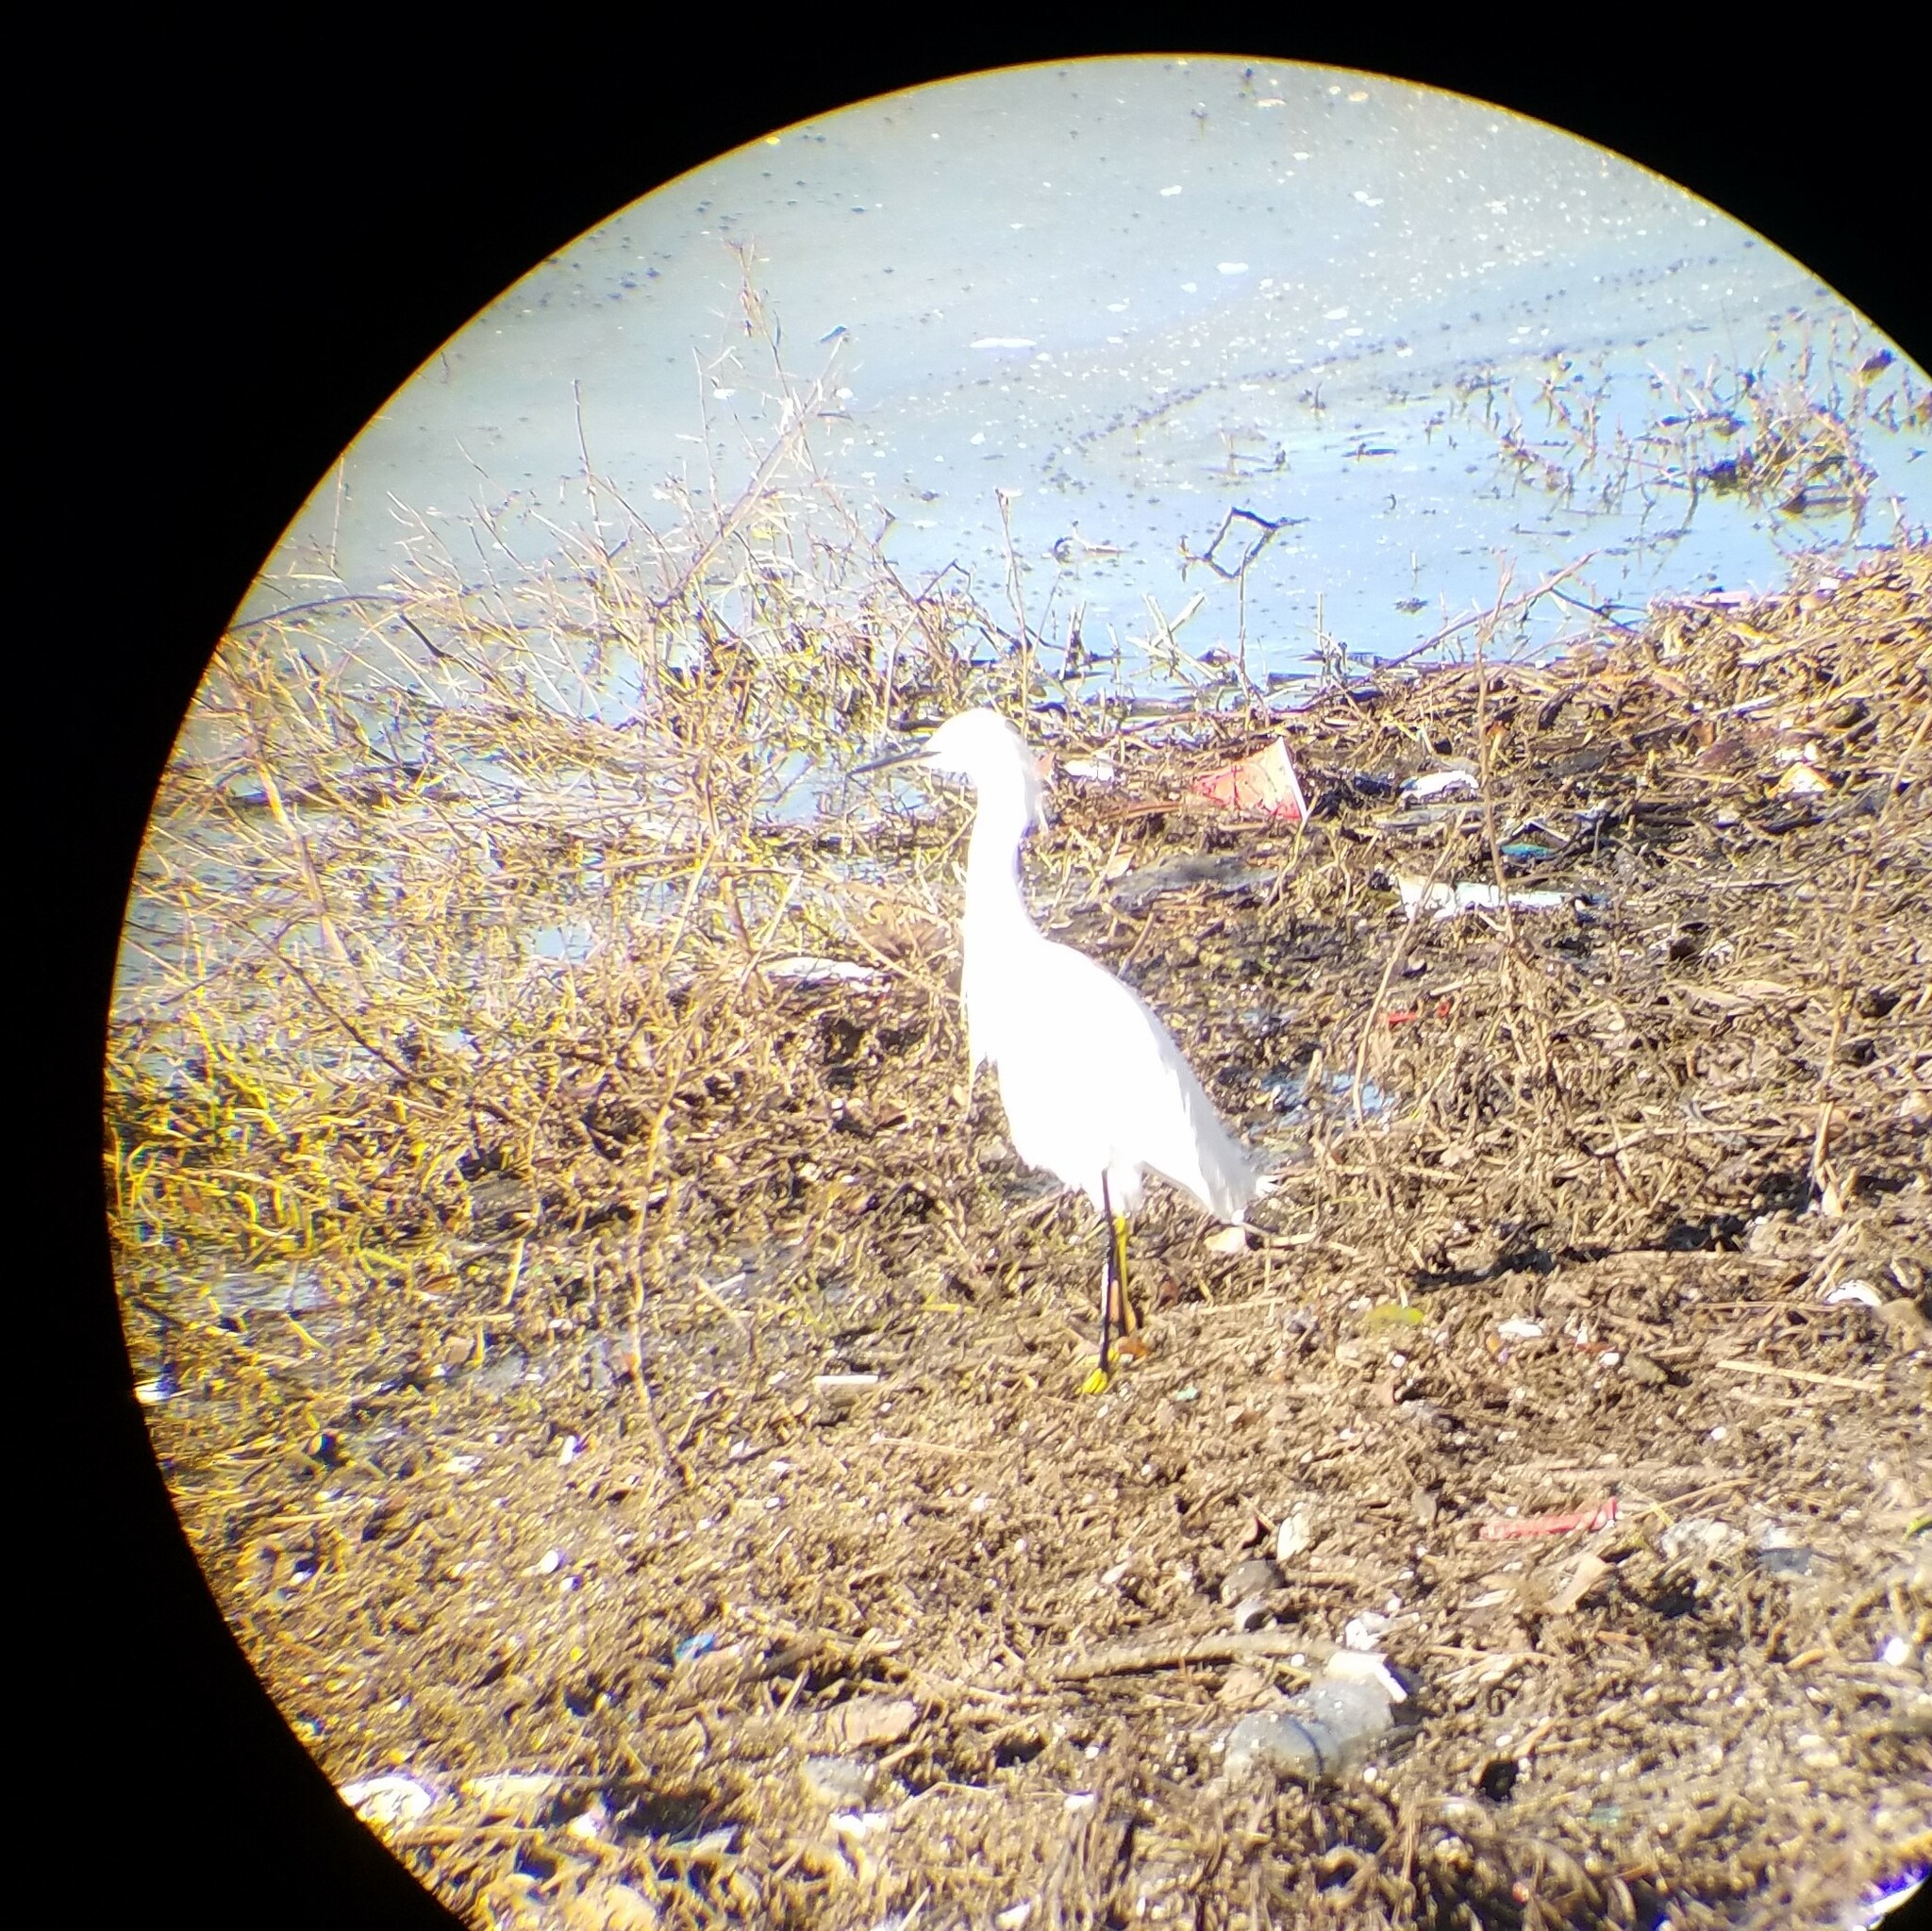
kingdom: Animalia
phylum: Chordata
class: Aves
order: Pelecaniformes
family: Ardeidae
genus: Egretta
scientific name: Egretta thula
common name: Snowy egret
